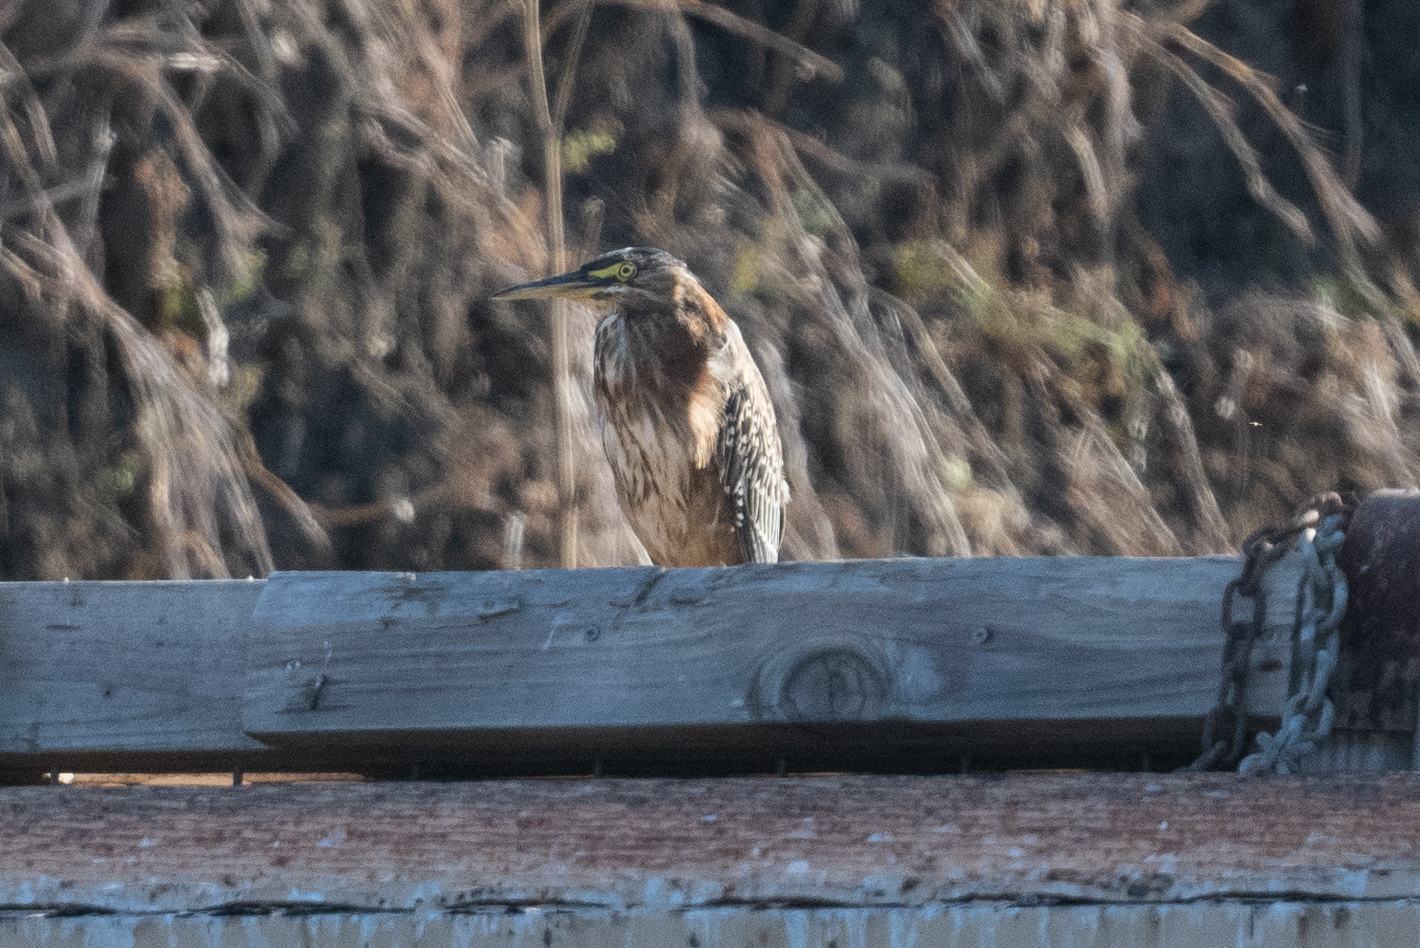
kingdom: Animalia
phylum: Chordata
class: Aves
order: Pelecaniformes
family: Ardeidae
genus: Butorides
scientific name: Butorides virescens
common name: Green heron
